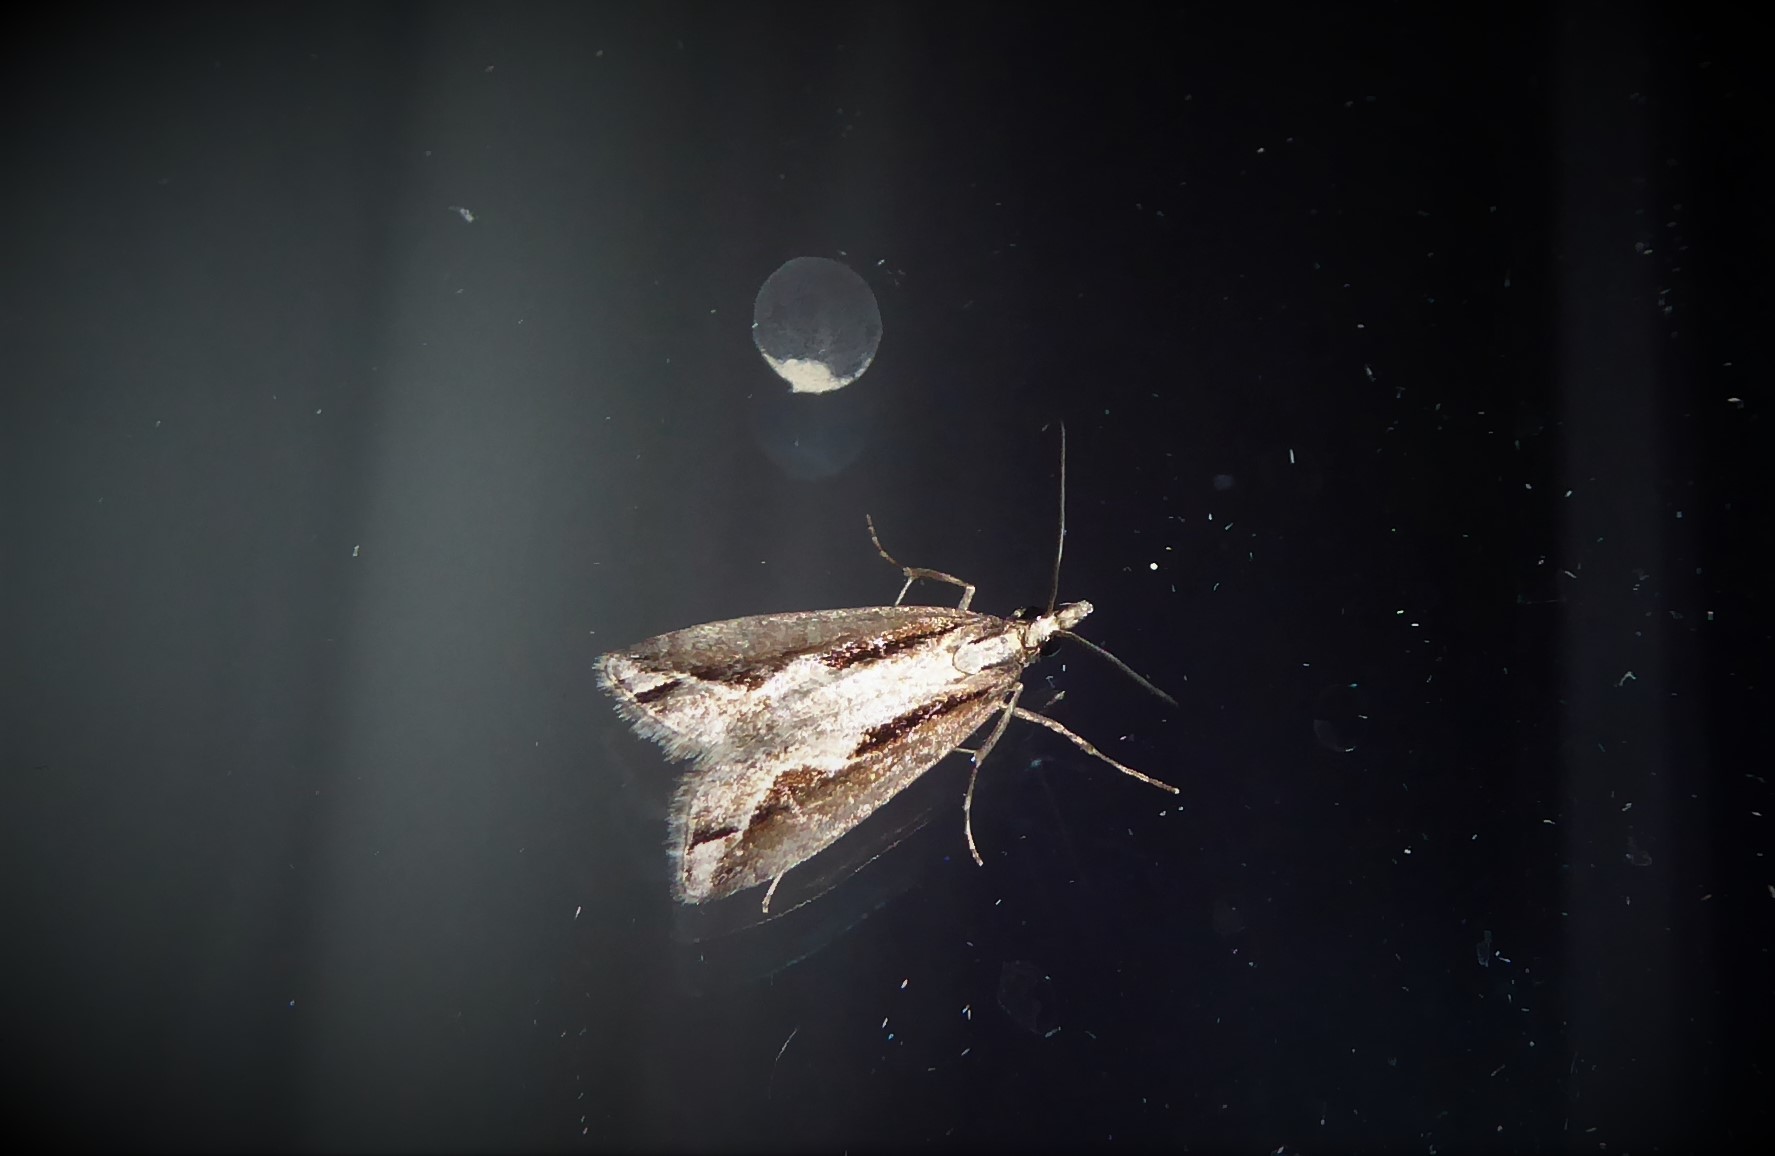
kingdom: Animalia
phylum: Arthropoda
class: Insecta
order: Lepidoptera
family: Crambidae
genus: Eudonia
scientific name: Eudonia steropaea
